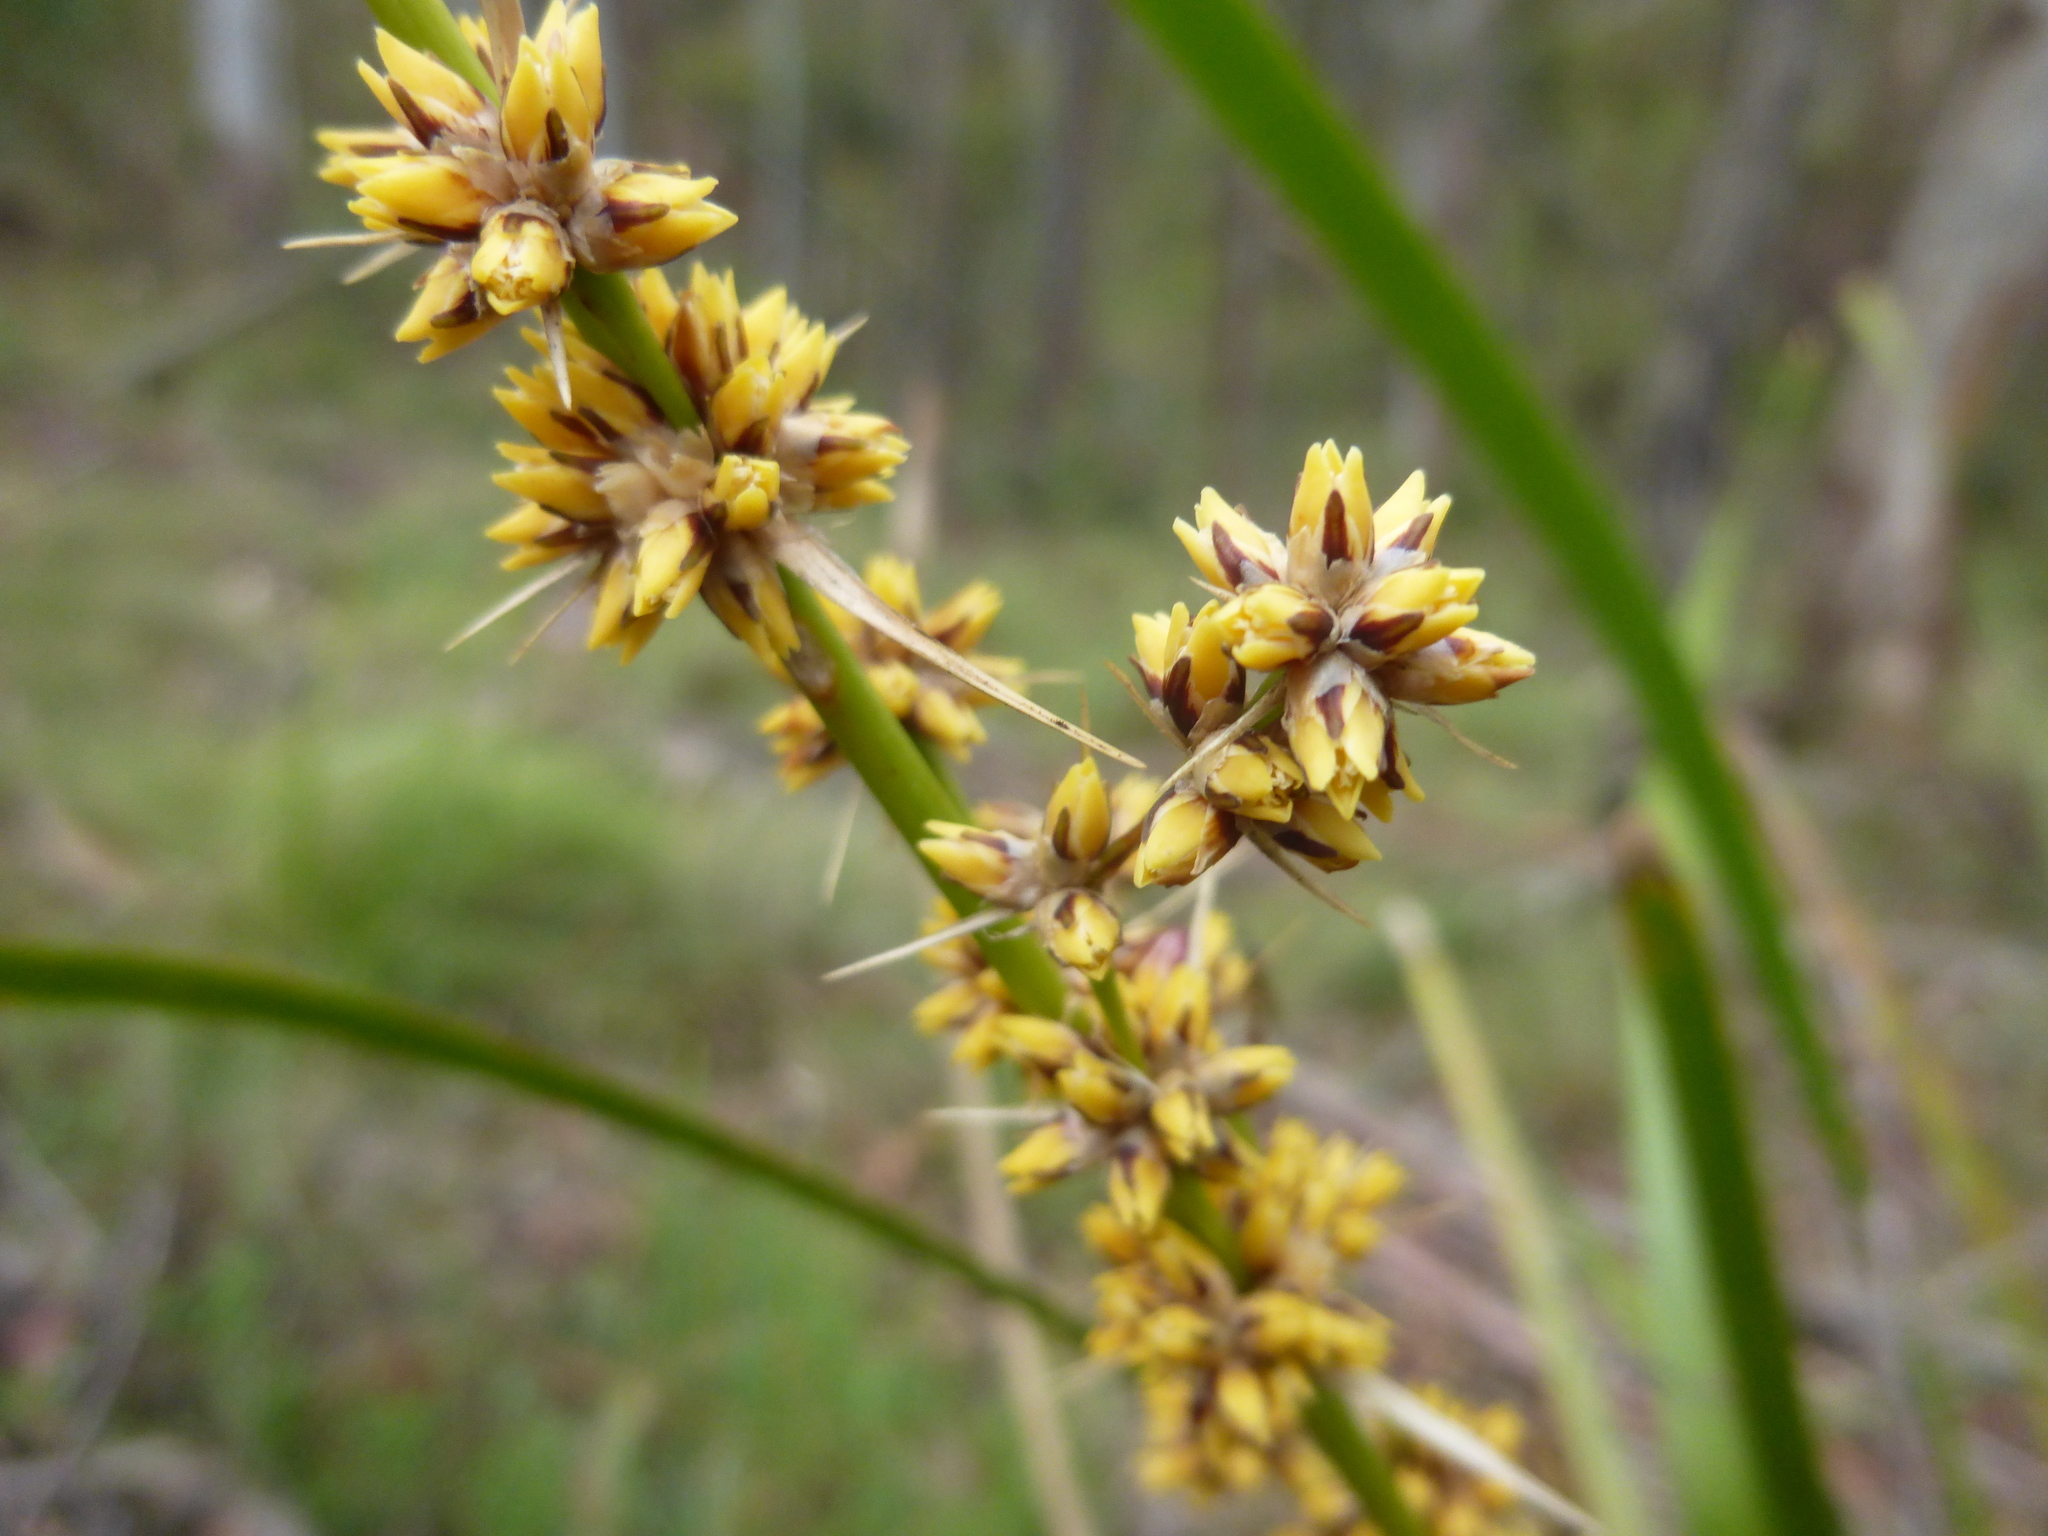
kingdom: Plantae
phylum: Tracheophyta
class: Liliopsida
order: Asparagales
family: Asparagaceae
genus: Lomandra
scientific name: Lomandra longifolia
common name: Longleaf mat-rush
